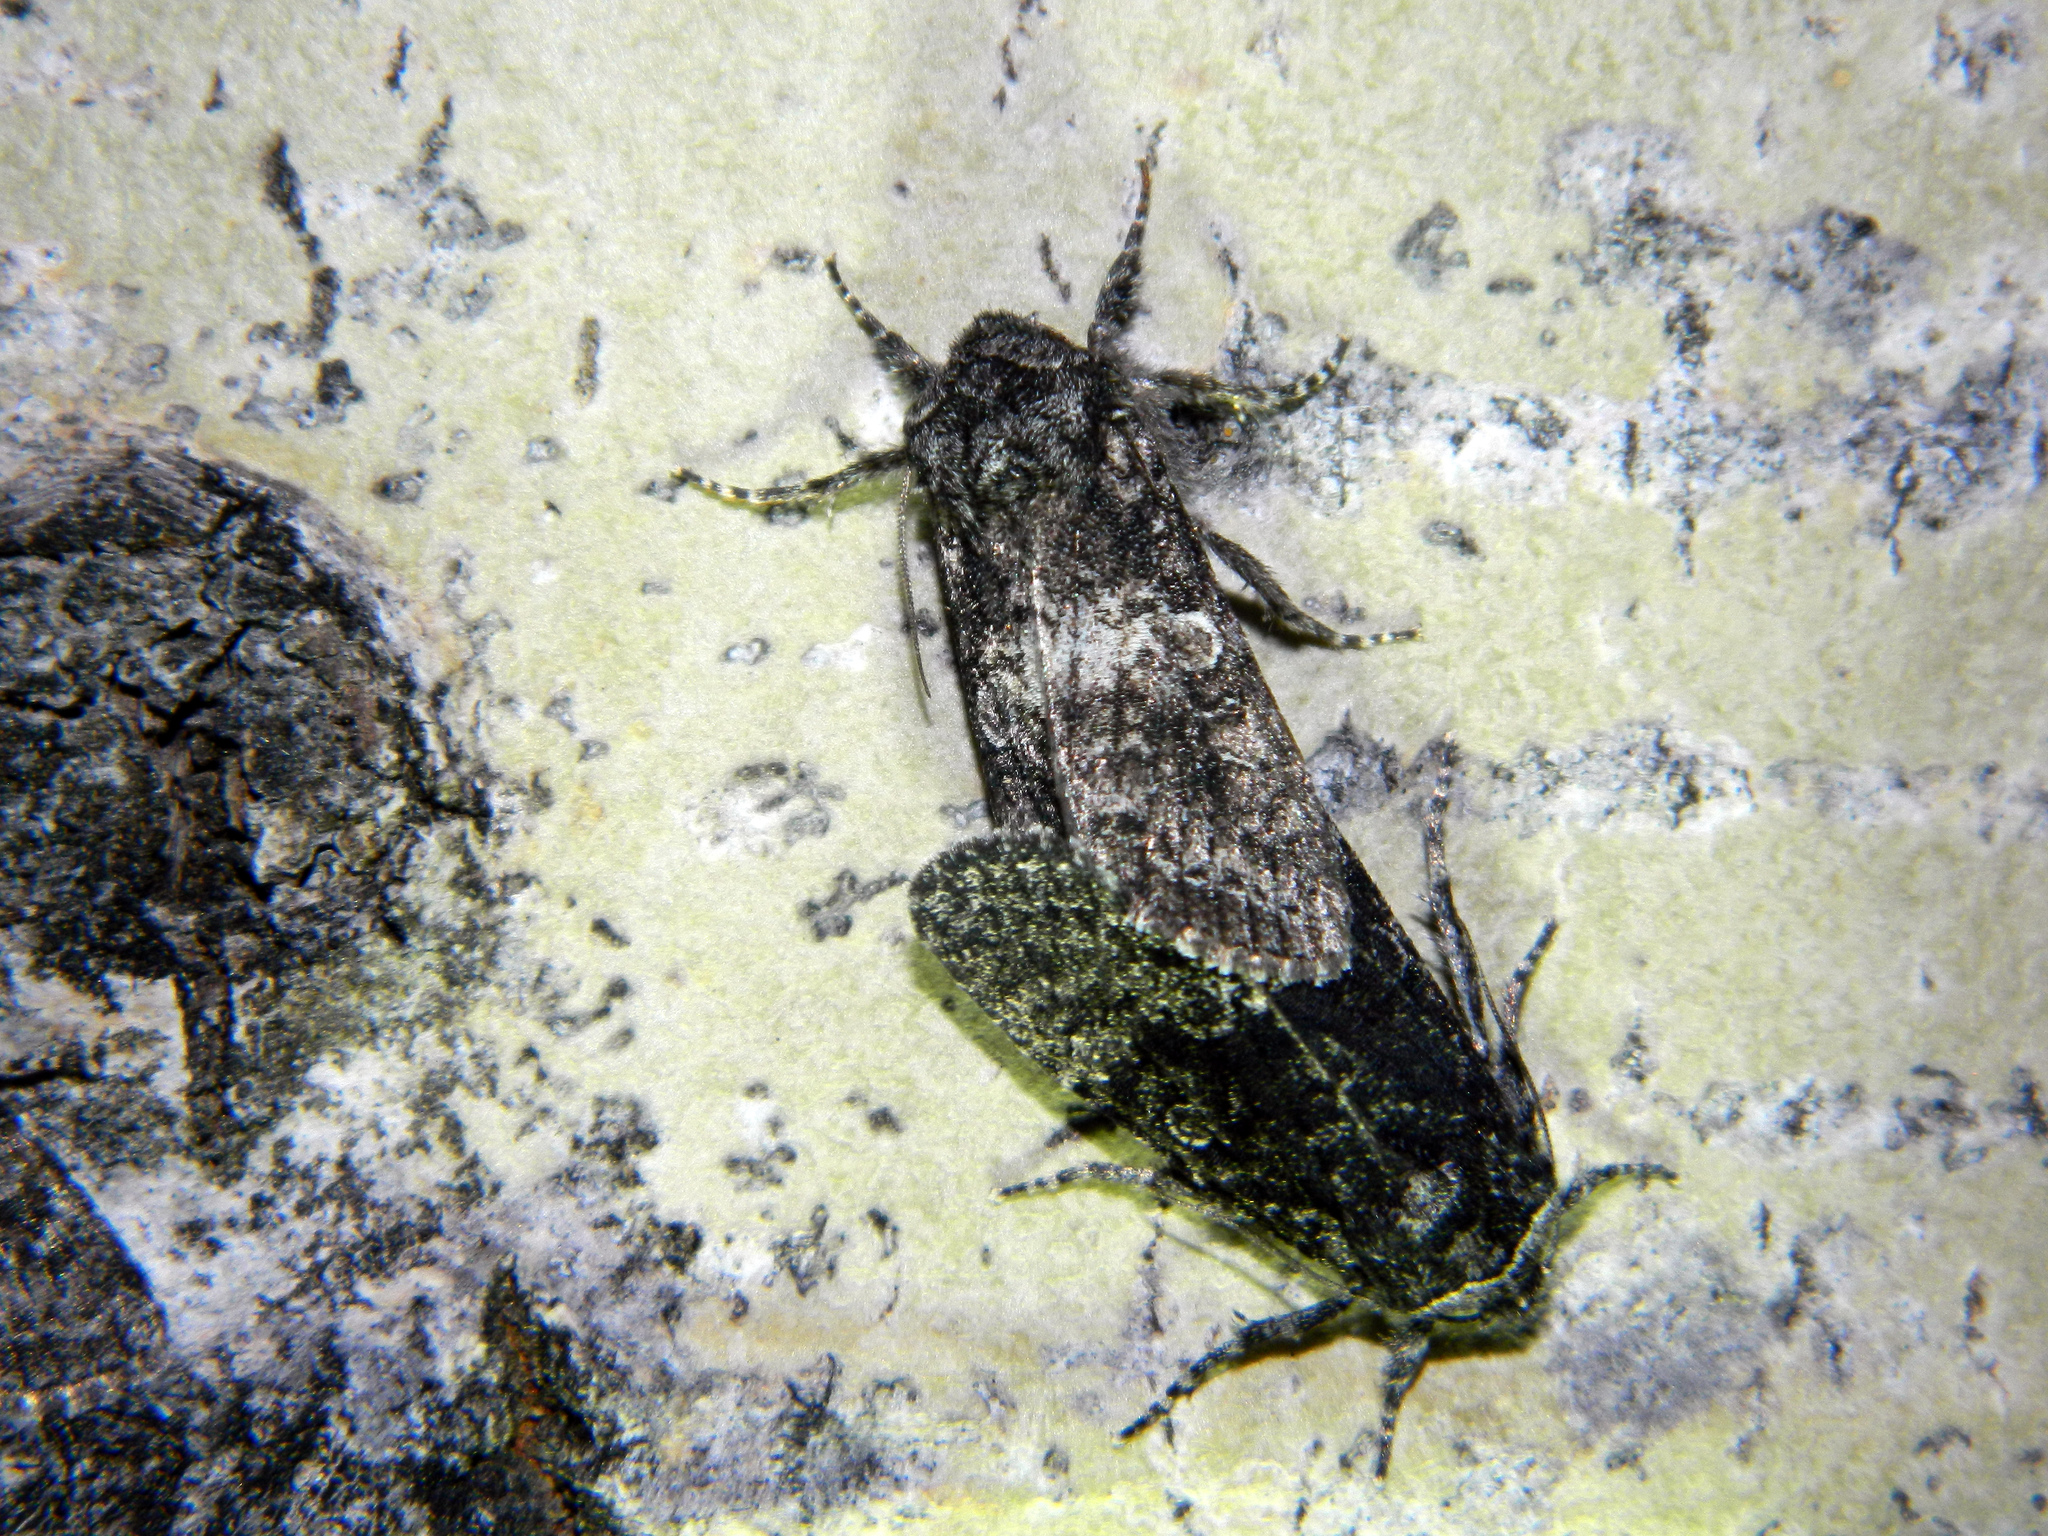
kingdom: Animalia
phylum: Arthropoda
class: Insecta
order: Lepidoptera
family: Noctuidae
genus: Egira
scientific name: Egira dolosa
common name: Lined black aspen cat.
